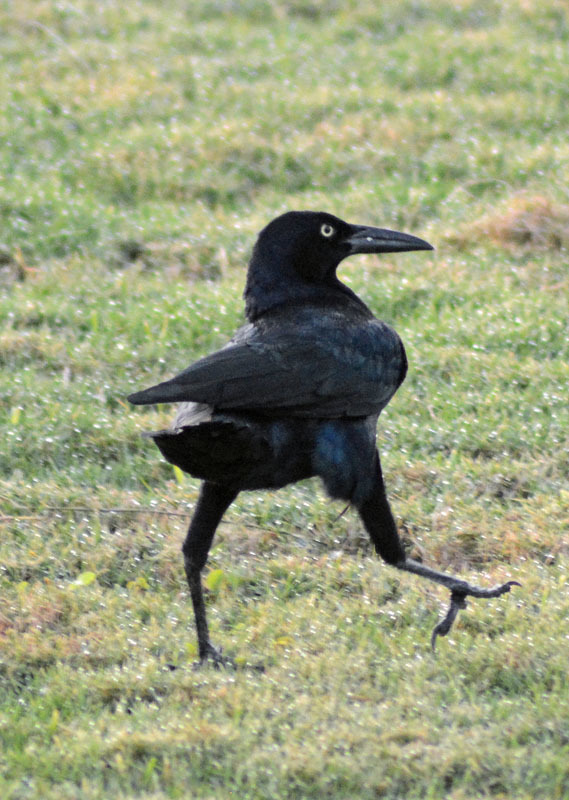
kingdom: Animalia
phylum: Chordata
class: Aves
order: Passeriformes
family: Icteridae
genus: Quiscalus
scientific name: Quiscalus mexicanus
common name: Great-tailed grackle
